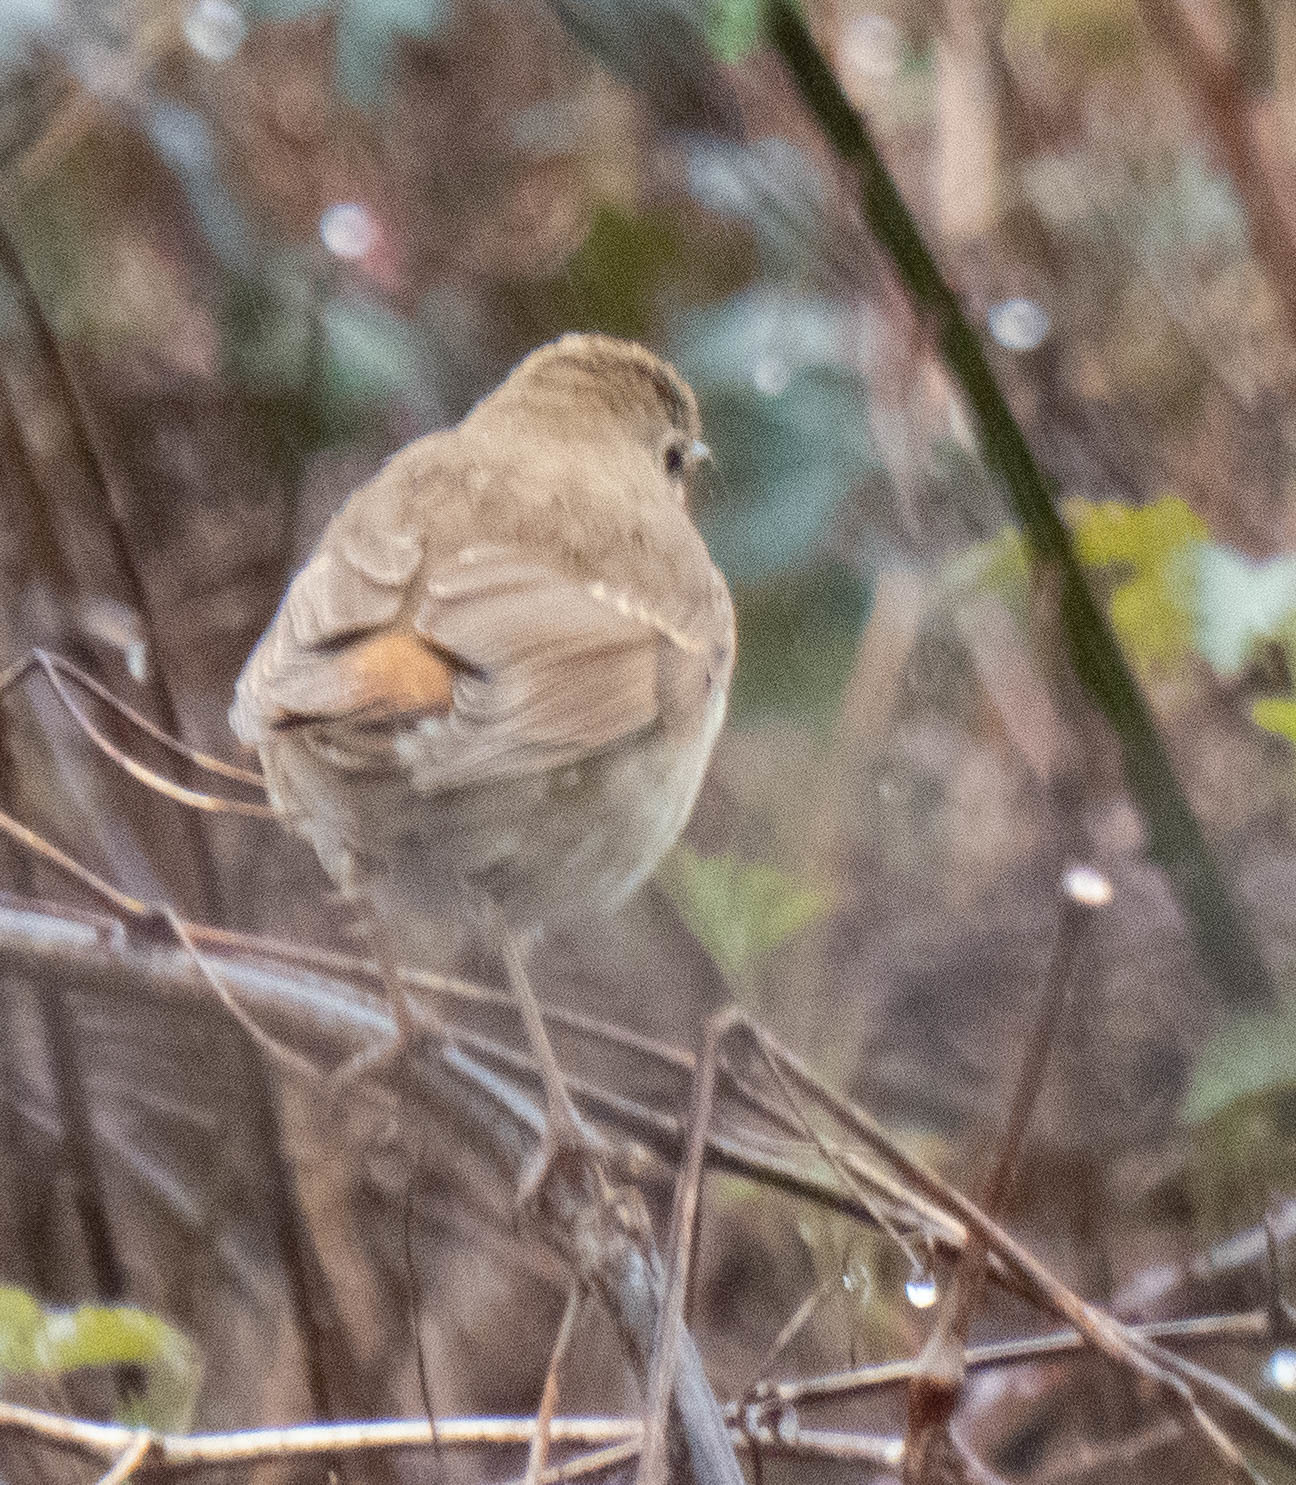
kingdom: Animalia
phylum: Chordata
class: Aves
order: Passeriformes
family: Turdidae
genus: Catharus
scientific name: Catharus guttatus
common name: Hermit thrush
